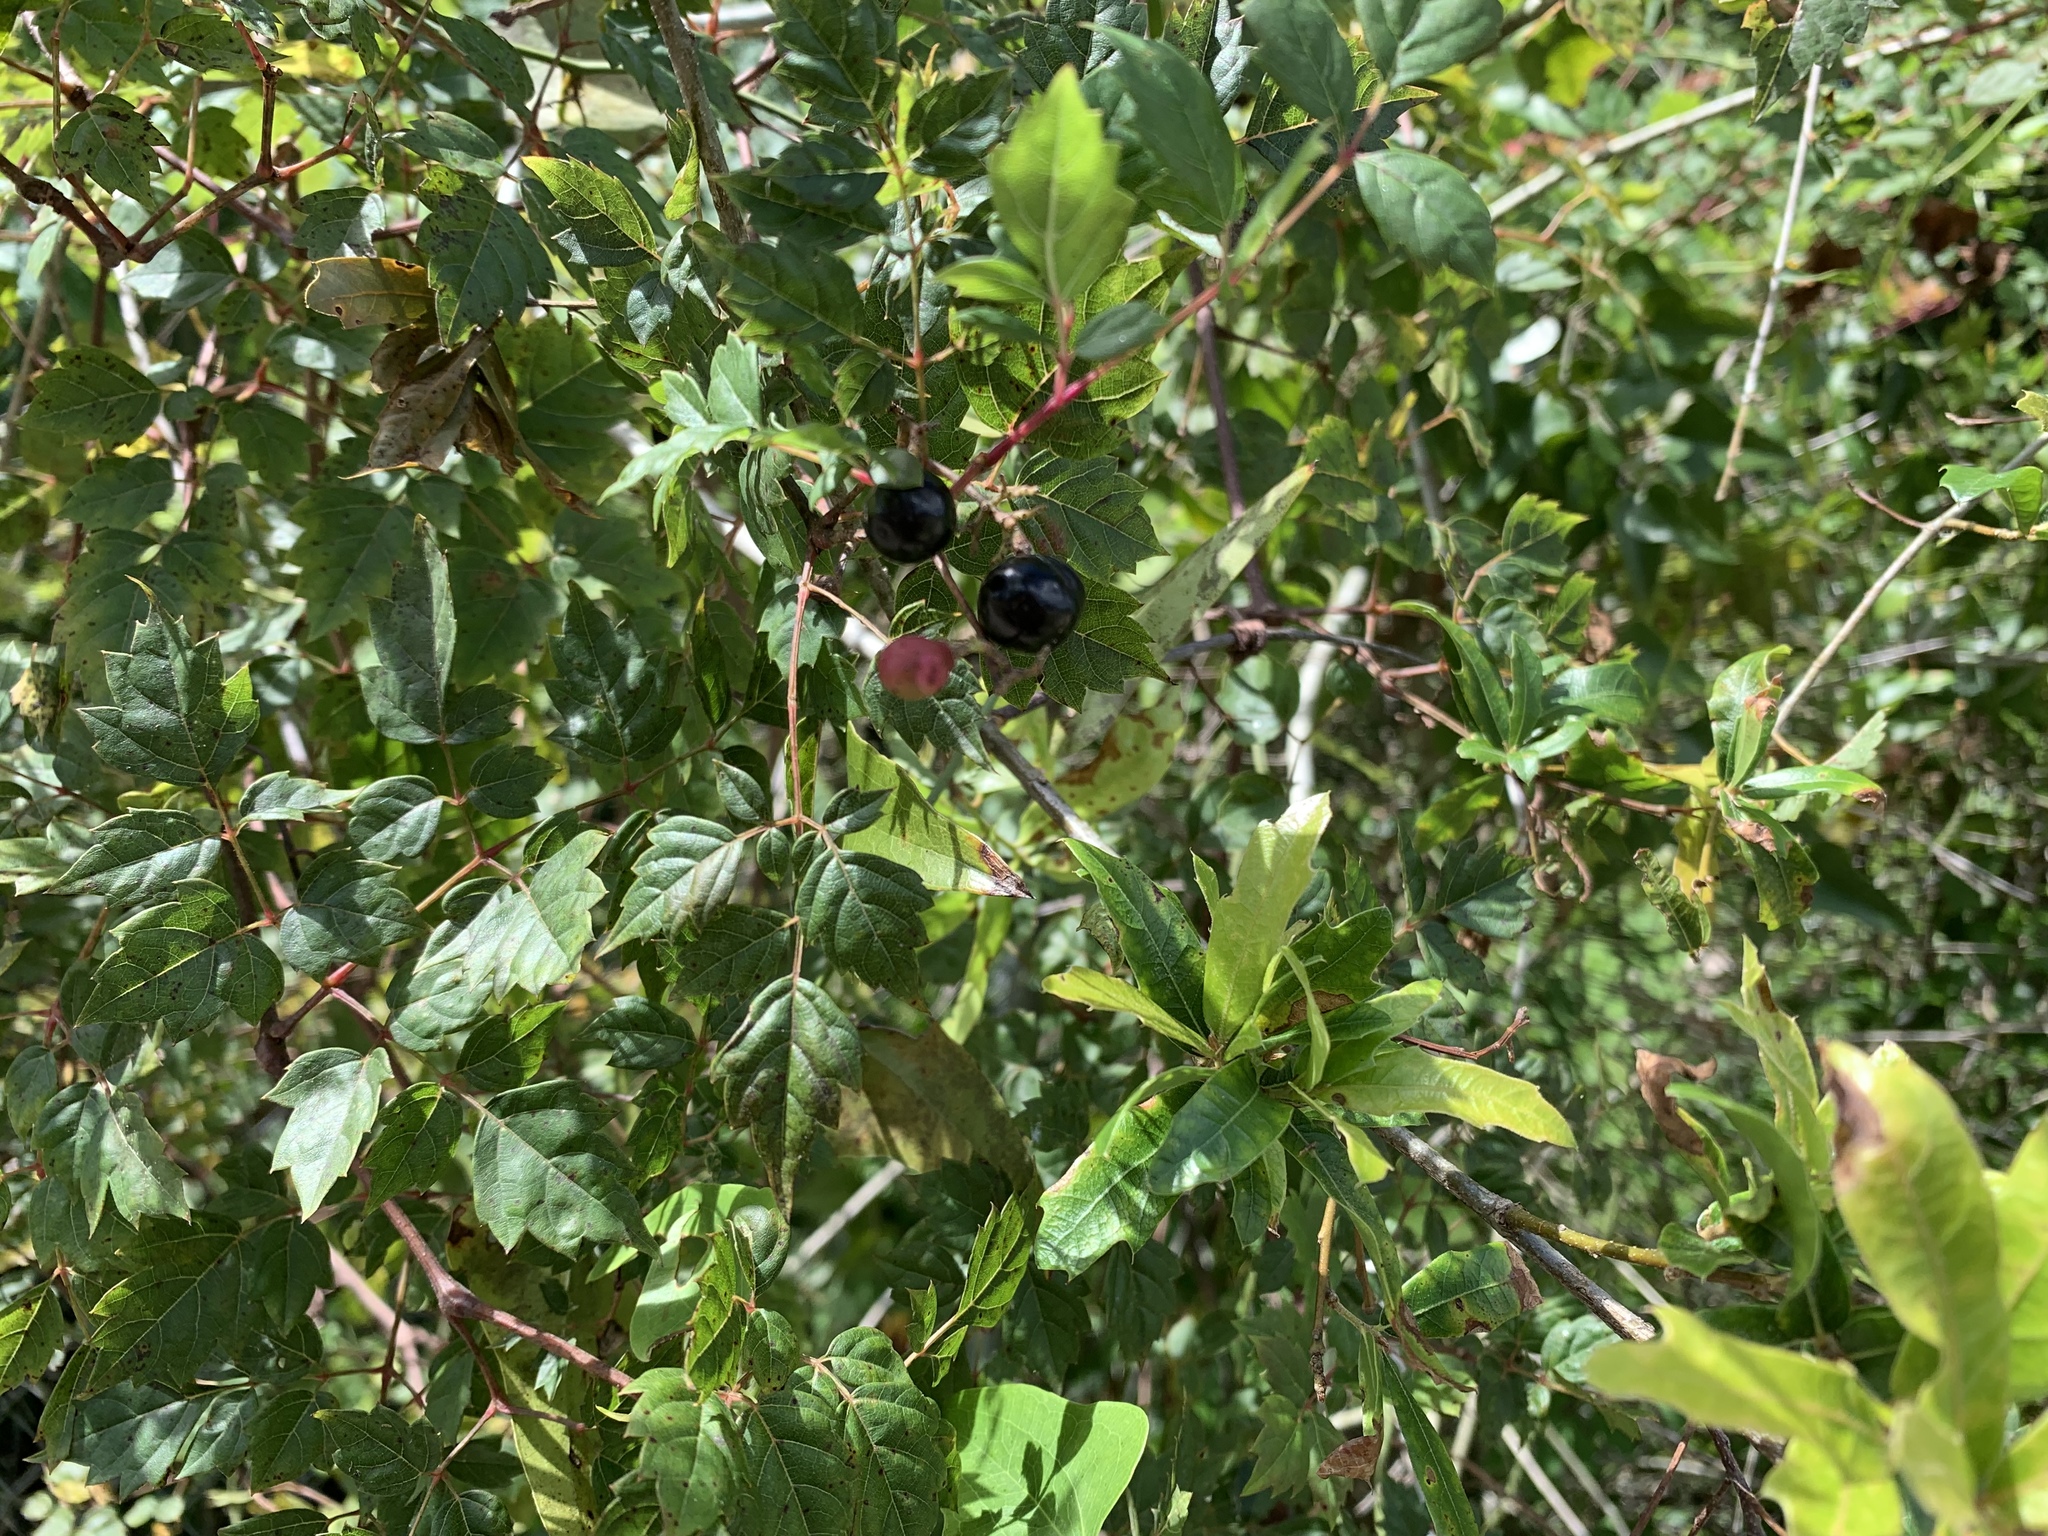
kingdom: Plantae
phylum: Tracheophyta
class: Magnoliopsida
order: Vitales
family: Vitaceae
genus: Nekemias
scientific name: Nekemias arborea
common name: Peppervine
